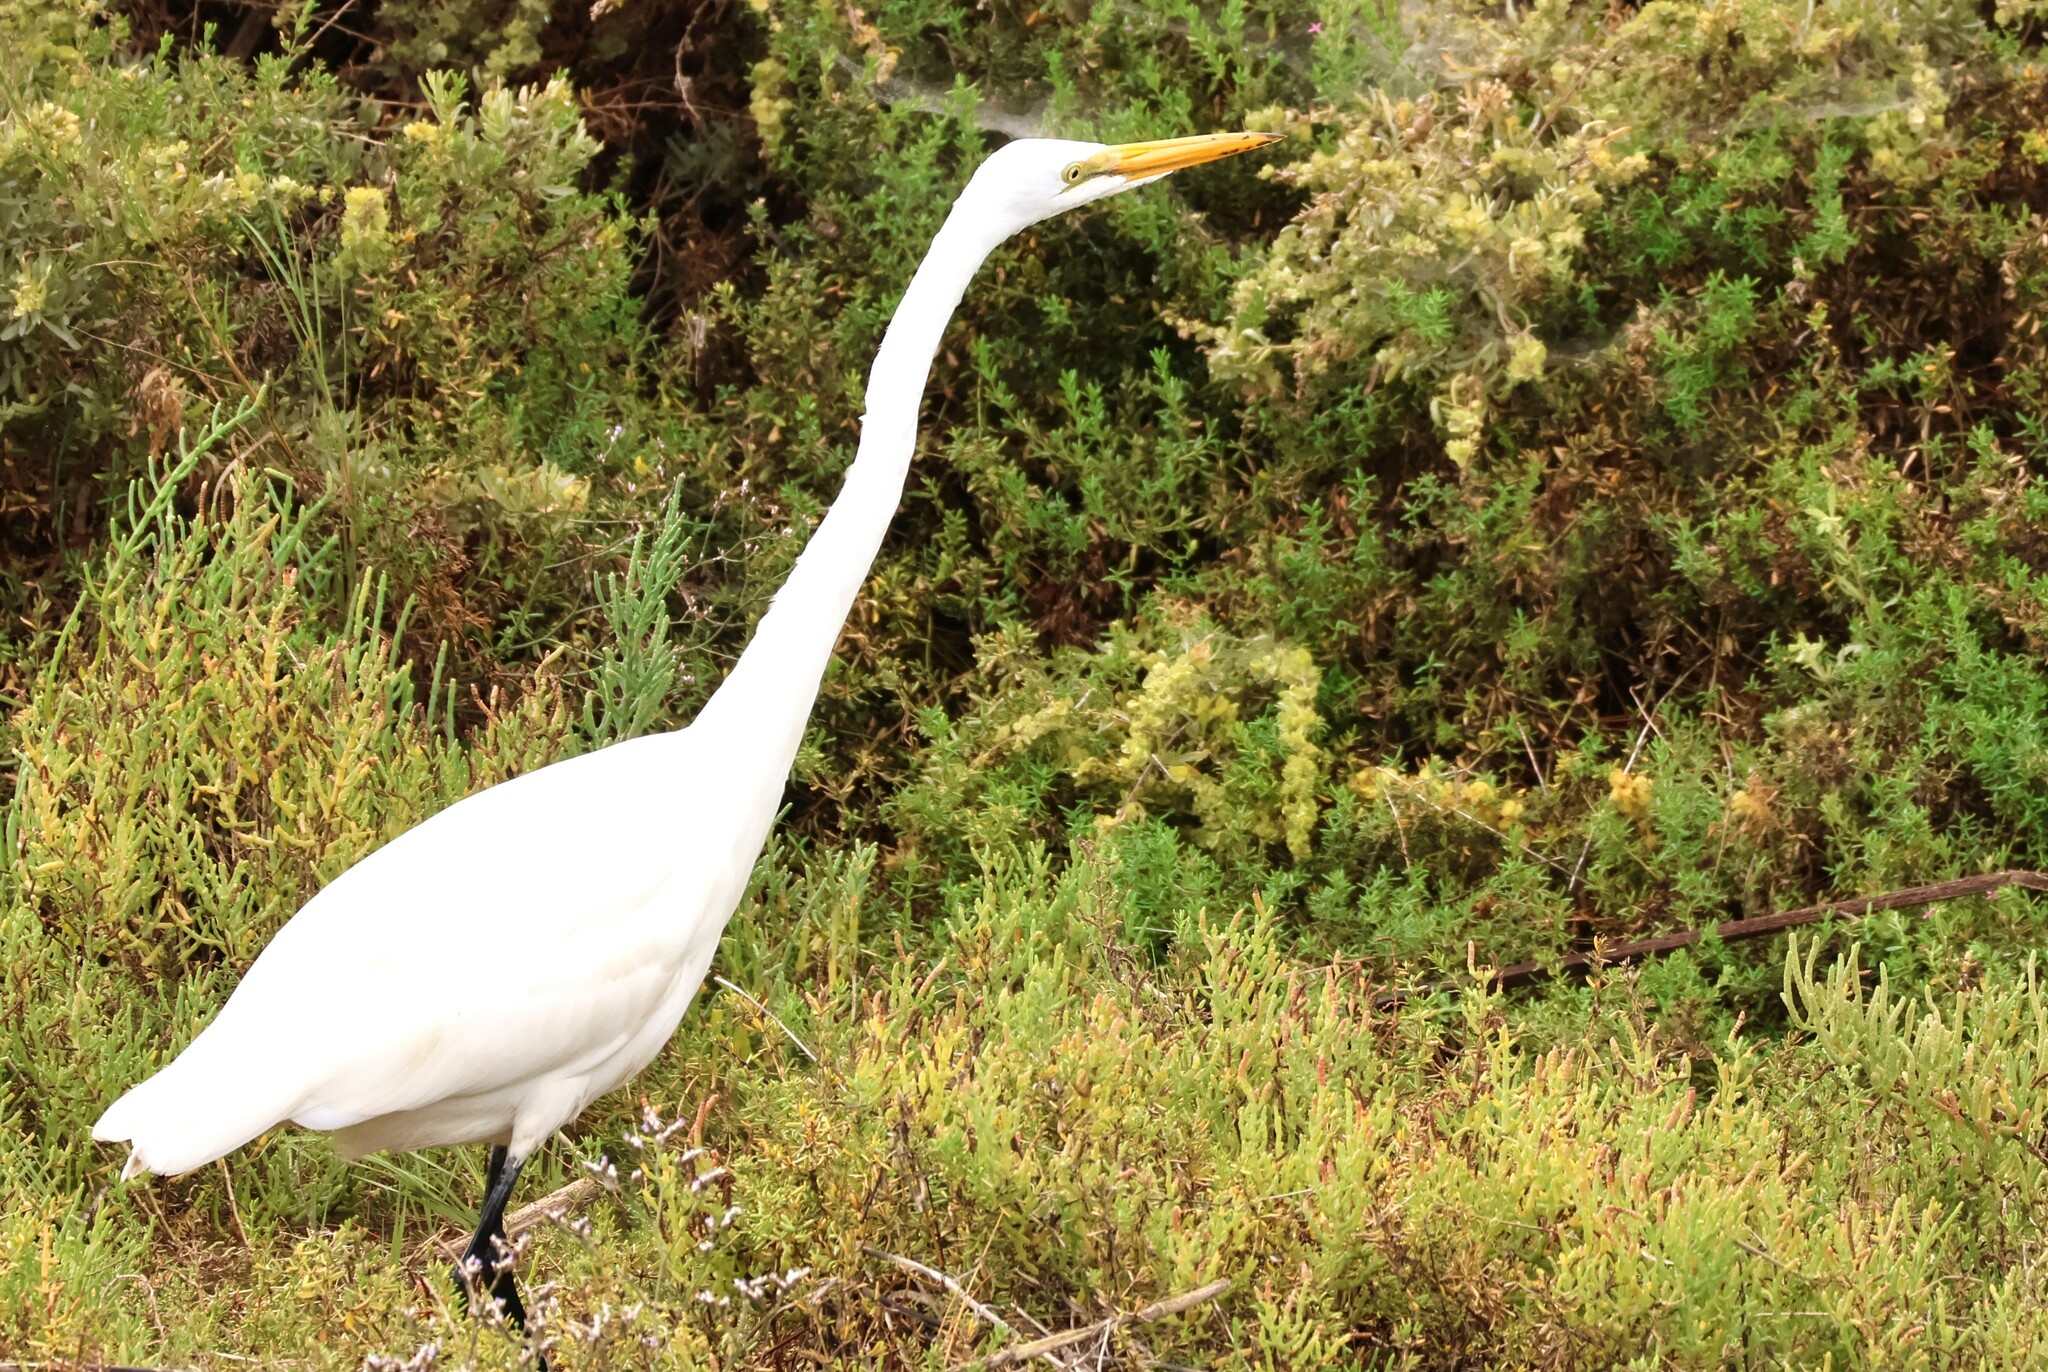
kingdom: Animalia
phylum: Chordata
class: Aves
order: Pelecaniformes
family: Ardeidae
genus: Ardea
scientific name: Ardea alba
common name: Great egret
